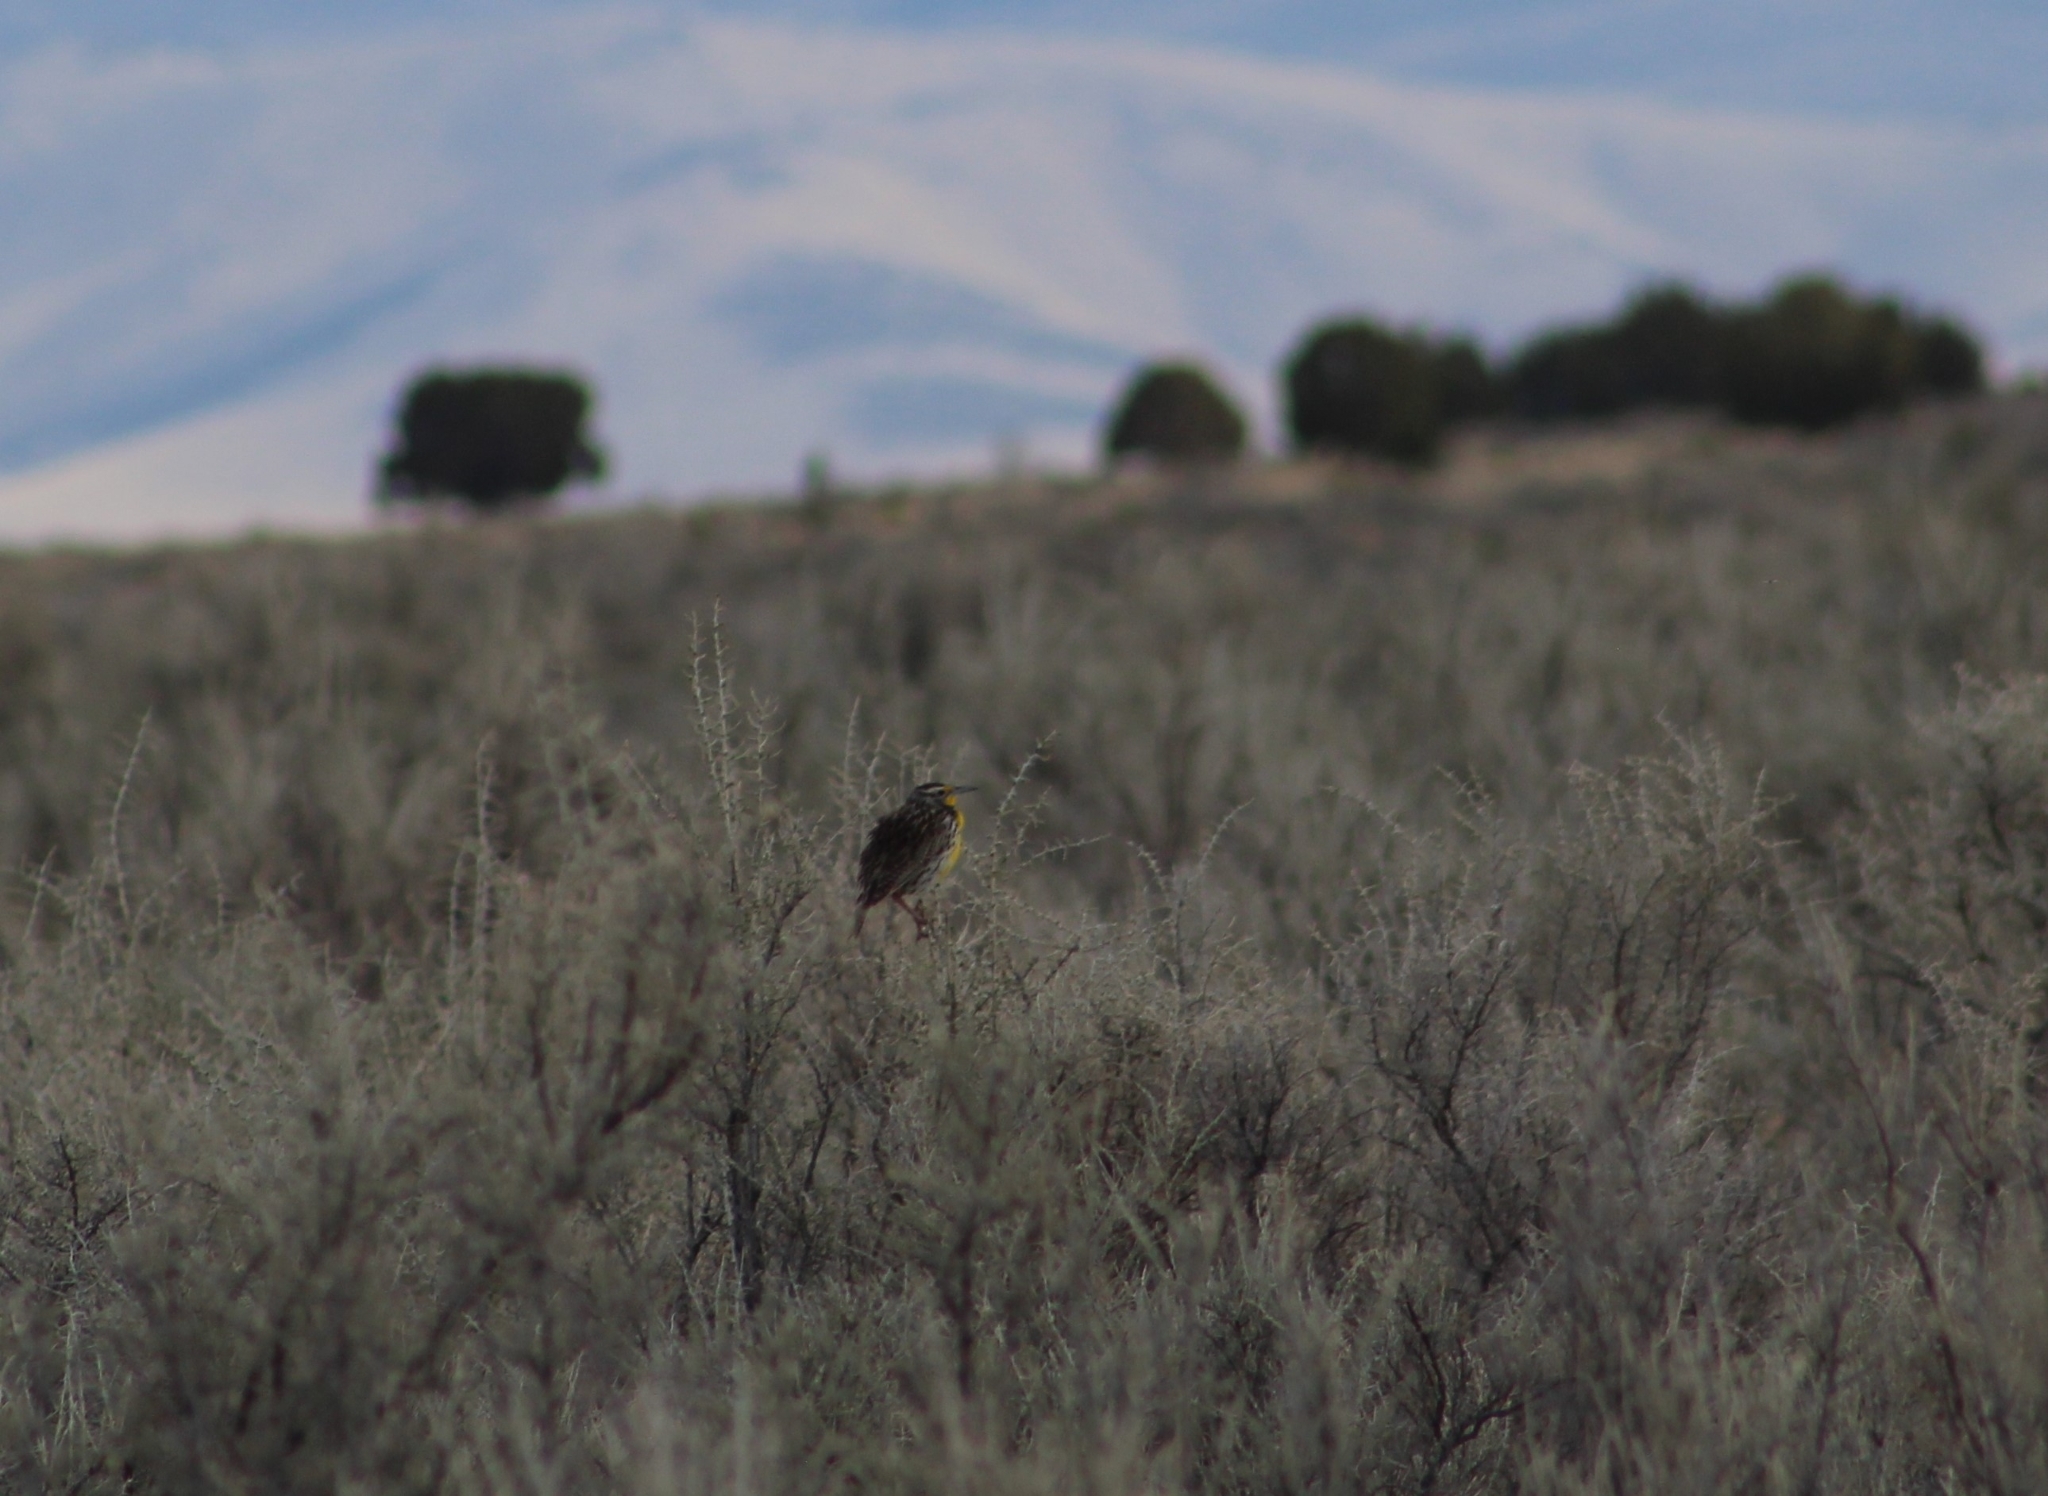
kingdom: Animalia
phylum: Chordata
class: Aves
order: Passeriformes
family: Icteridae
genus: Sturnella
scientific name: Sturnella neglecta
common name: Western meadowlark
